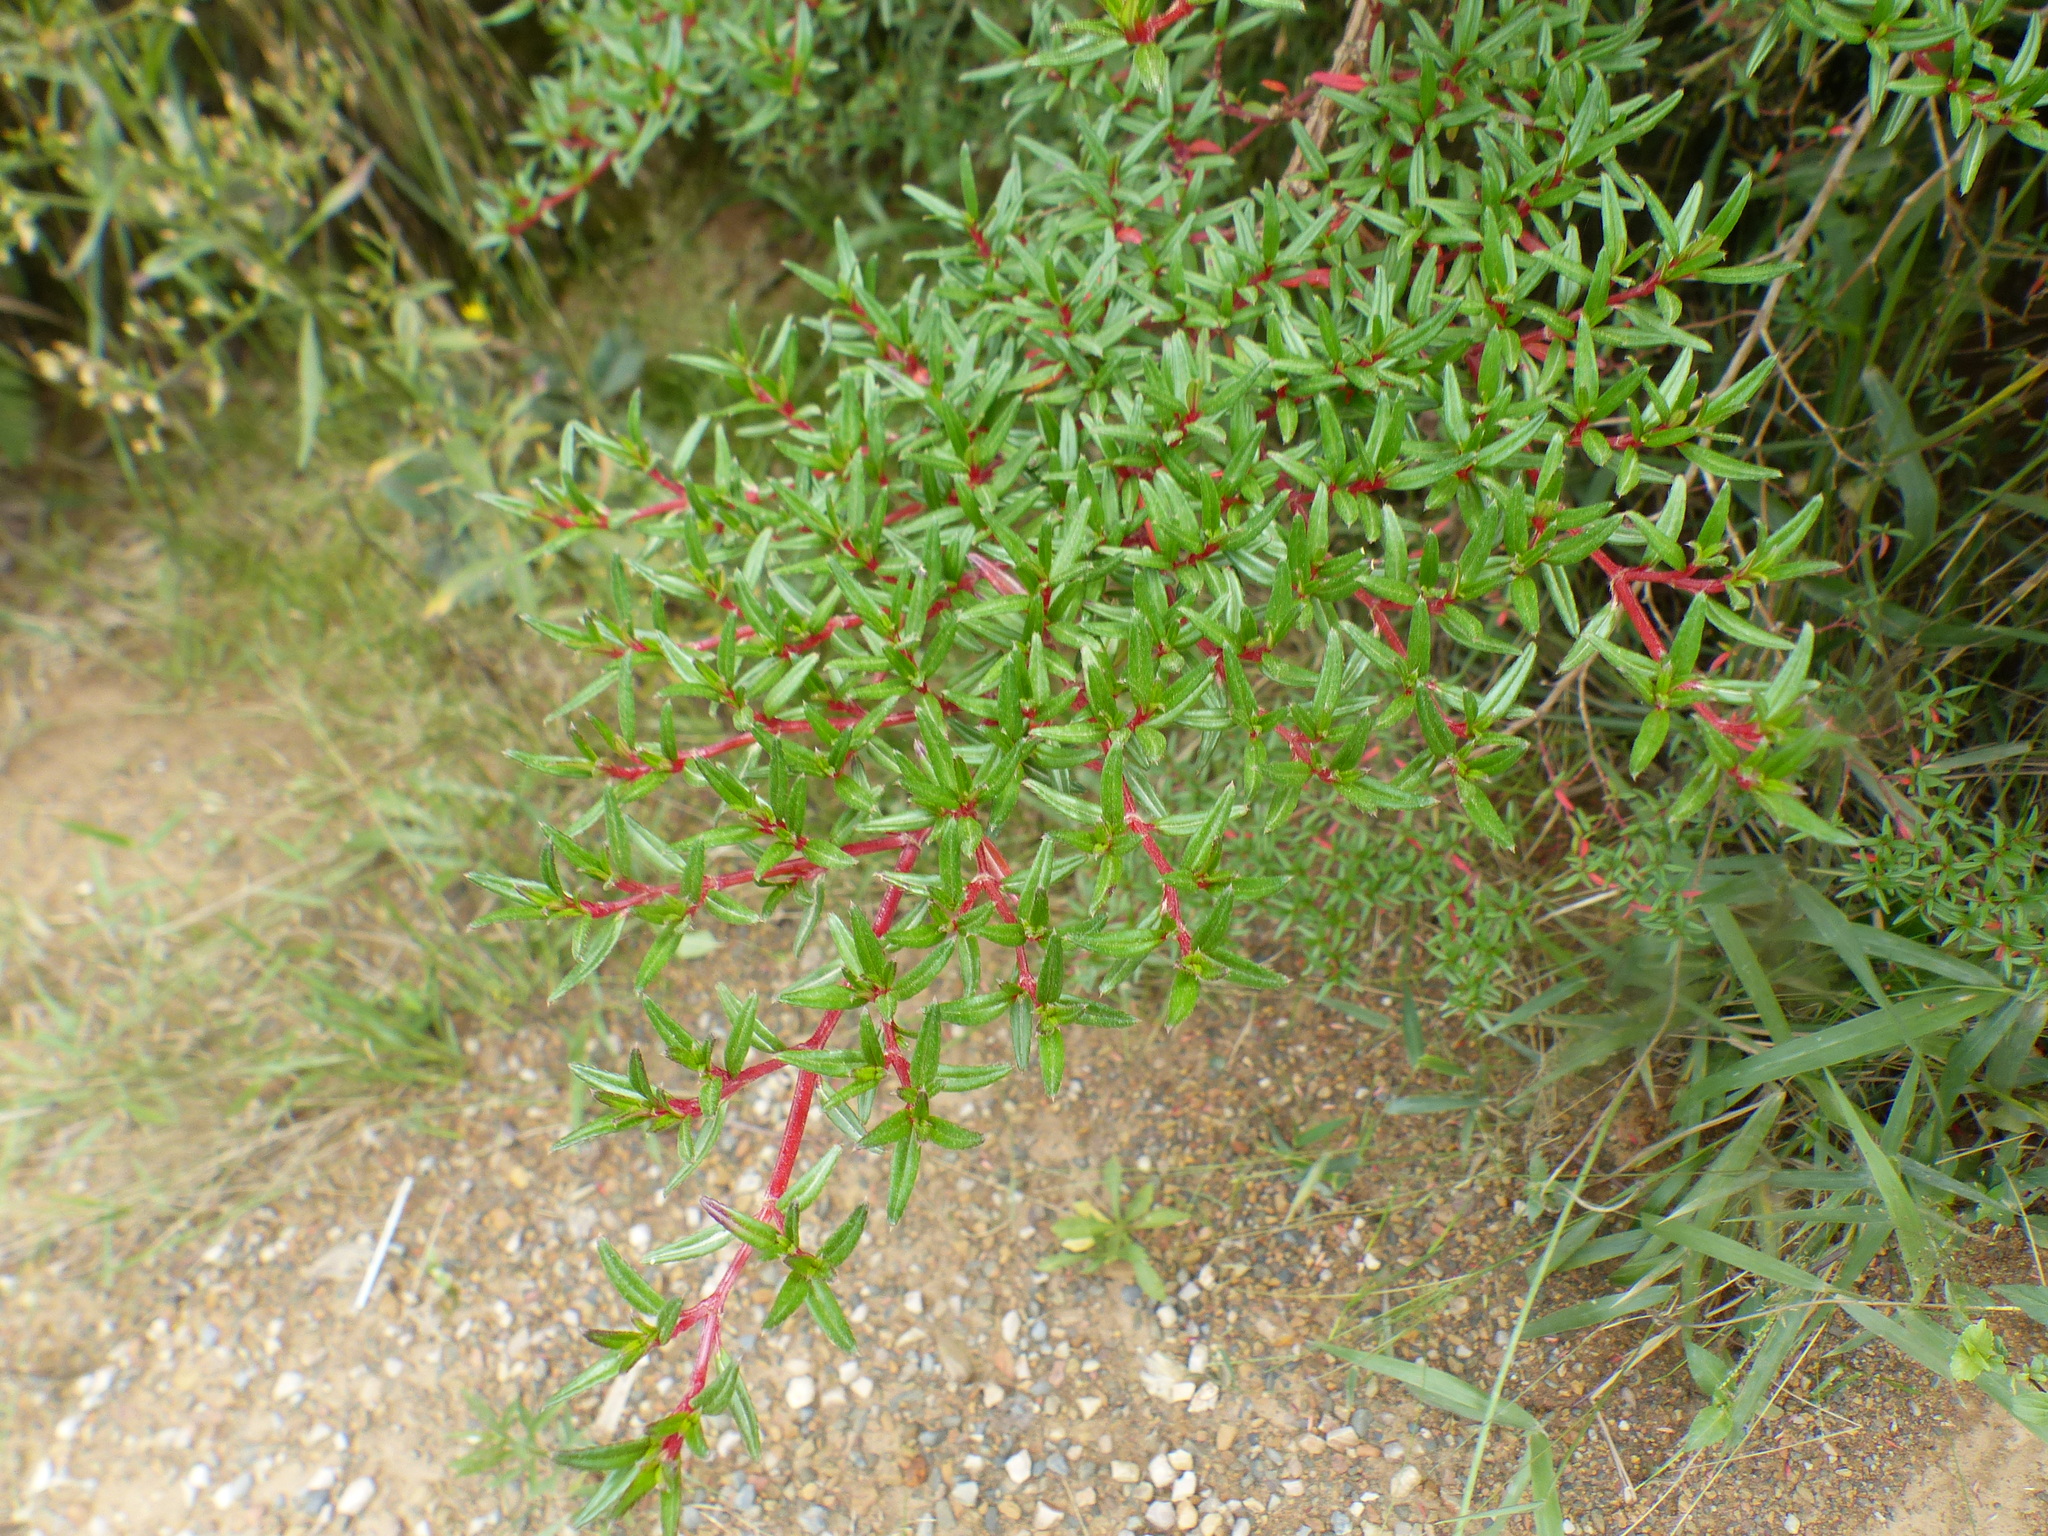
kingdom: Plantae
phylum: Tracheophyta
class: Magnoliopsida
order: Myrtales
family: Melastomataceae
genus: Monochaetum
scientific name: Monochaetum uribei
